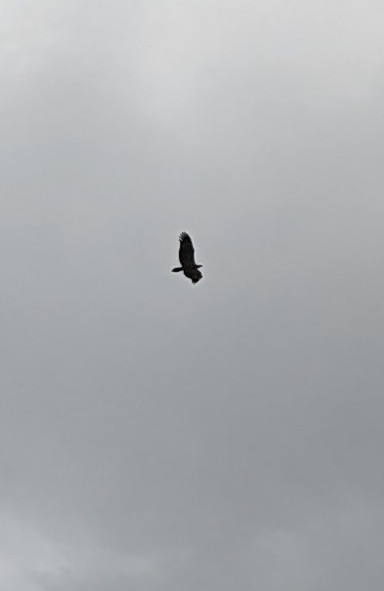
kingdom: Animalia
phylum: Chordata
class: Aves
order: Accipitriformes
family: Accipitridae
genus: Haliaeetus
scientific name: Haliaeetus leucogaster
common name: White-bellied sea eagle
